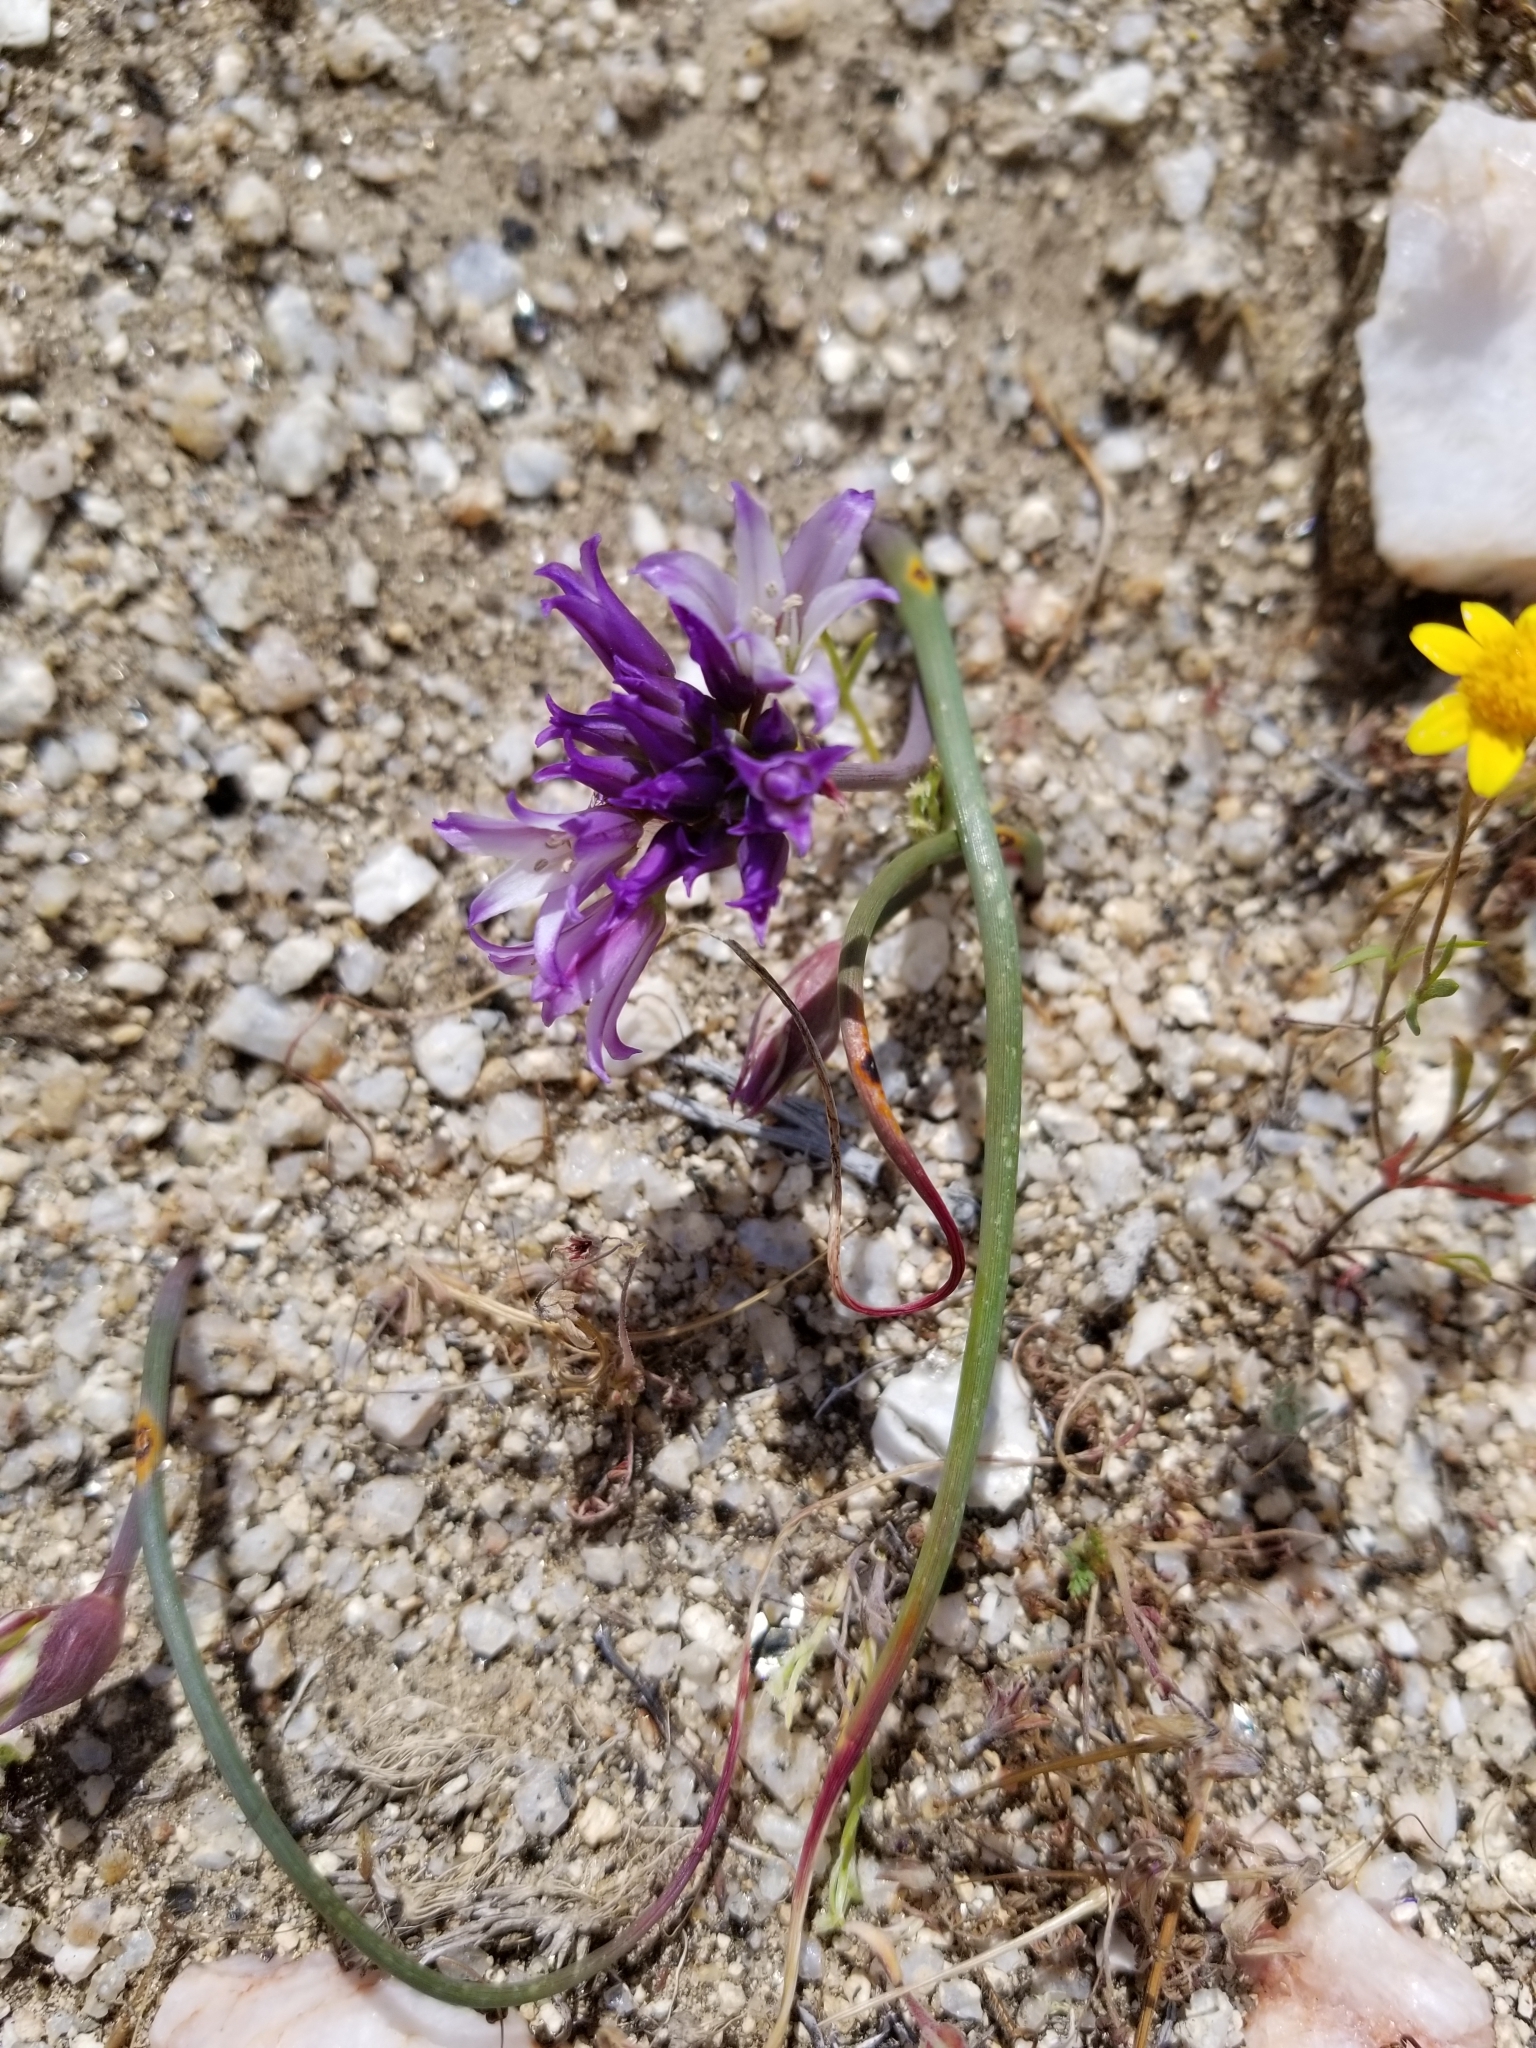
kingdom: Plantae
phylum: Tracheophyta
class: Liliopsida
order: Asparagales
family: Amaryllidaceae
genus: Allium
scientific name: Allium fimbriatum
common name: Fringed onion
